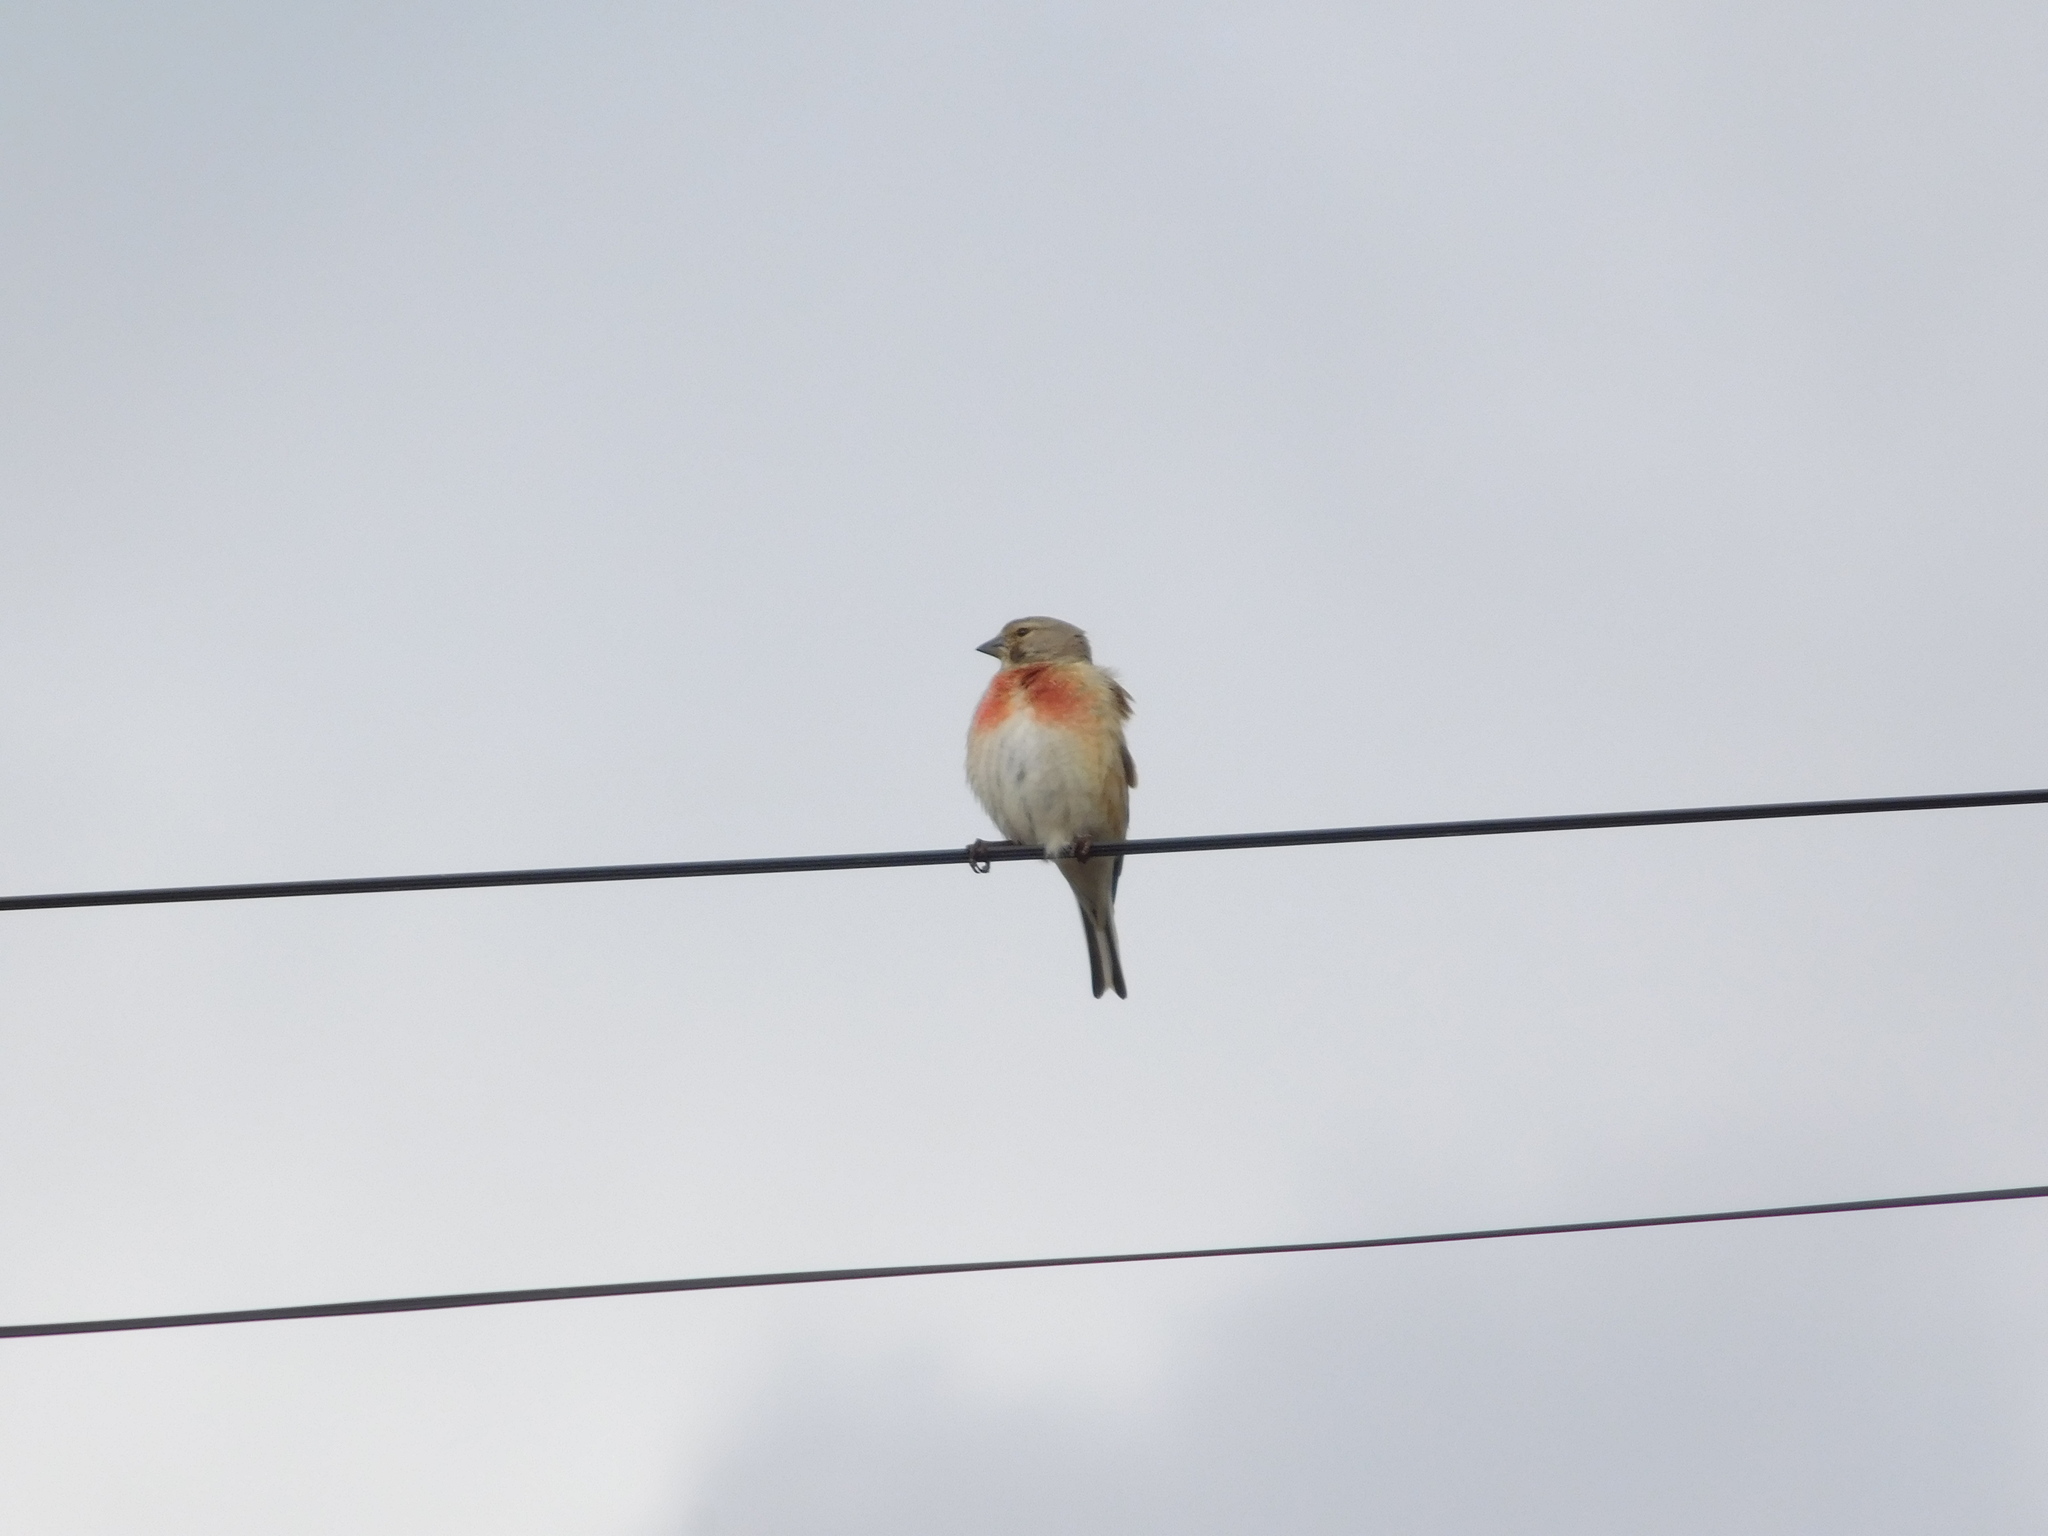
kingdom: Animalia
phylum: Chordata
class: Aves
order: Passeriformes
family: Fringillidae
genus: Linaria
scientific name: Linaria cannabina
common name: Common linnet
